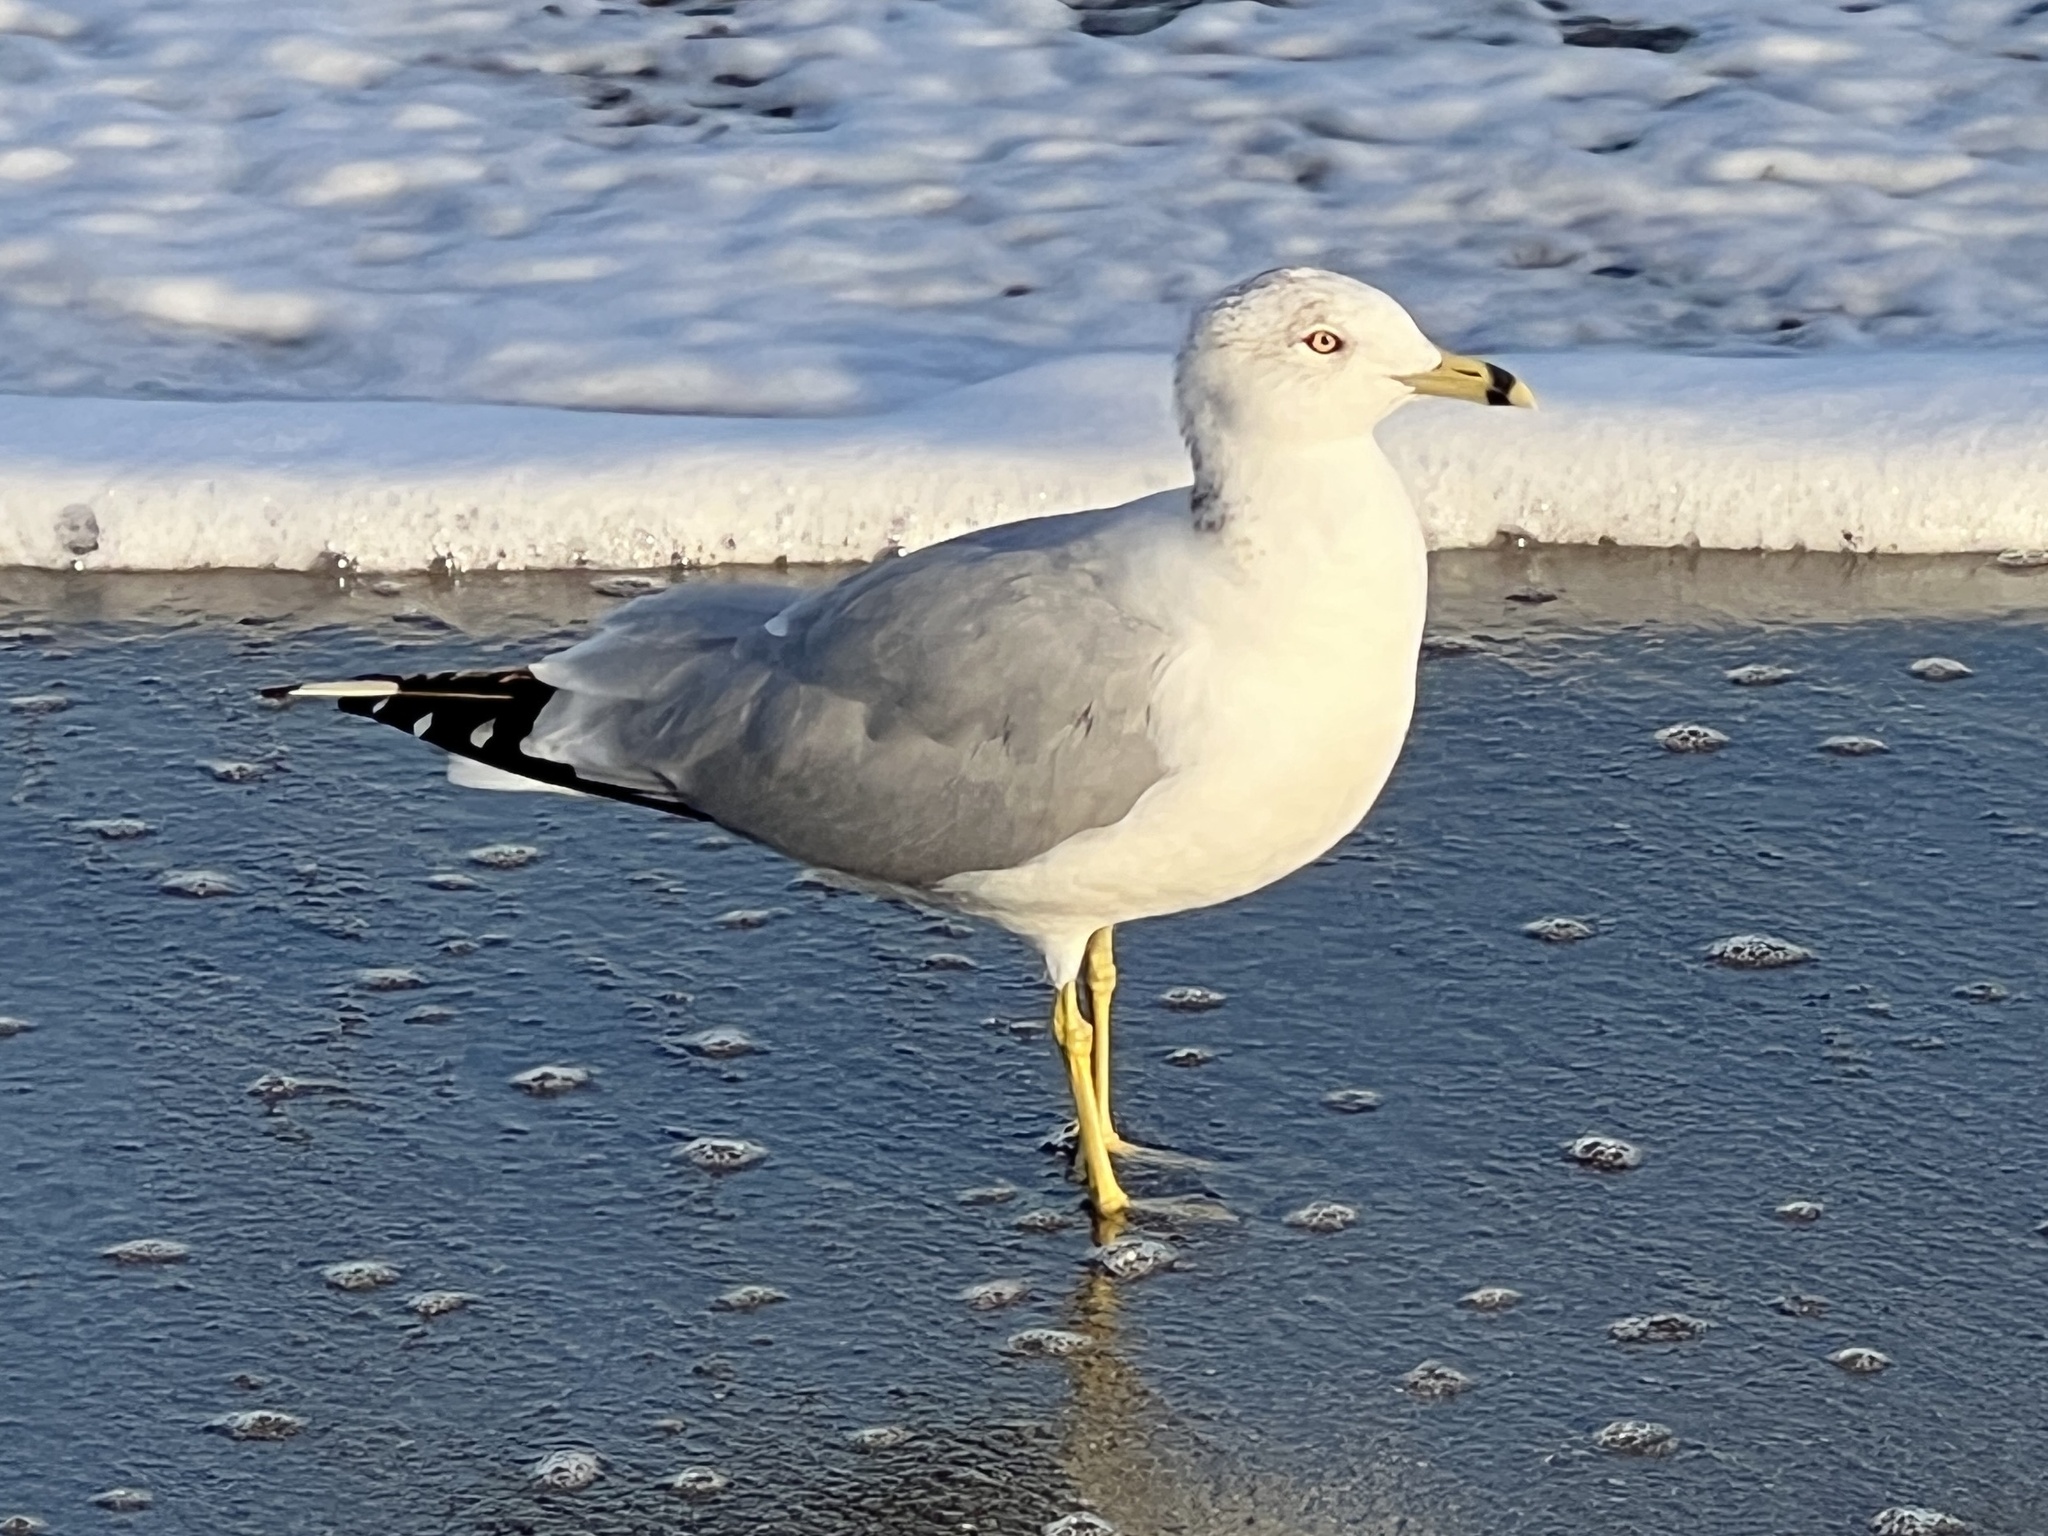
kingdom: Animalia
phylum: Chordata
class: Aves
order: Charadriiformes
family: Laridae
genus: Larus
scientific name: Larus delawarensis
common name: Ring-billed gull
